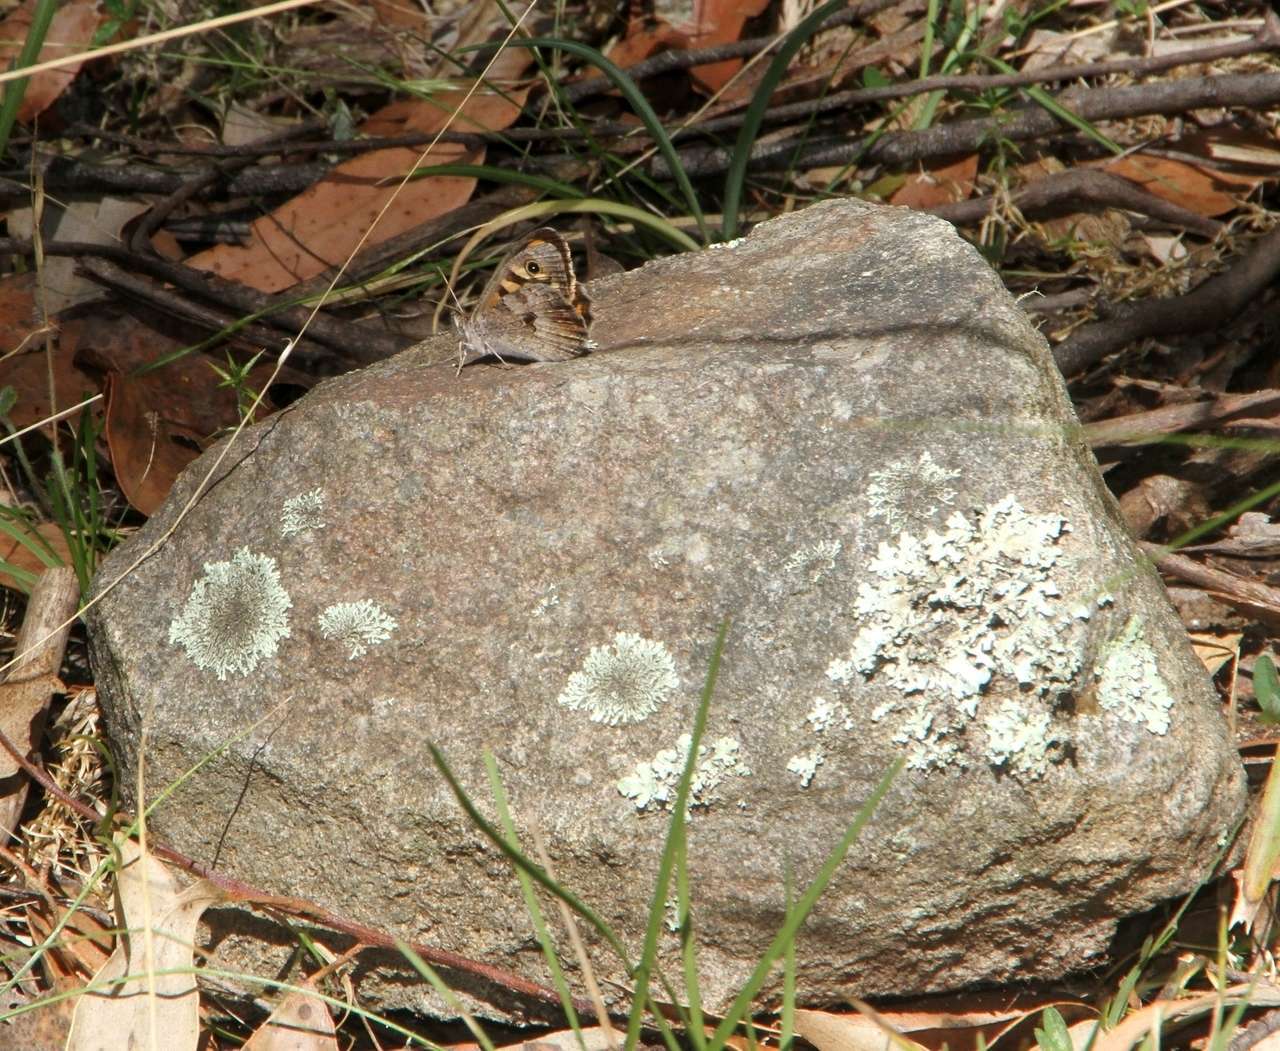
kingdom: Animalia
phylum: Arthropoda
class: Insecta
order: Lepidoptera
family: Nymphalidae
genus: Geitoneura
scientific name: Geitoneura klugii
